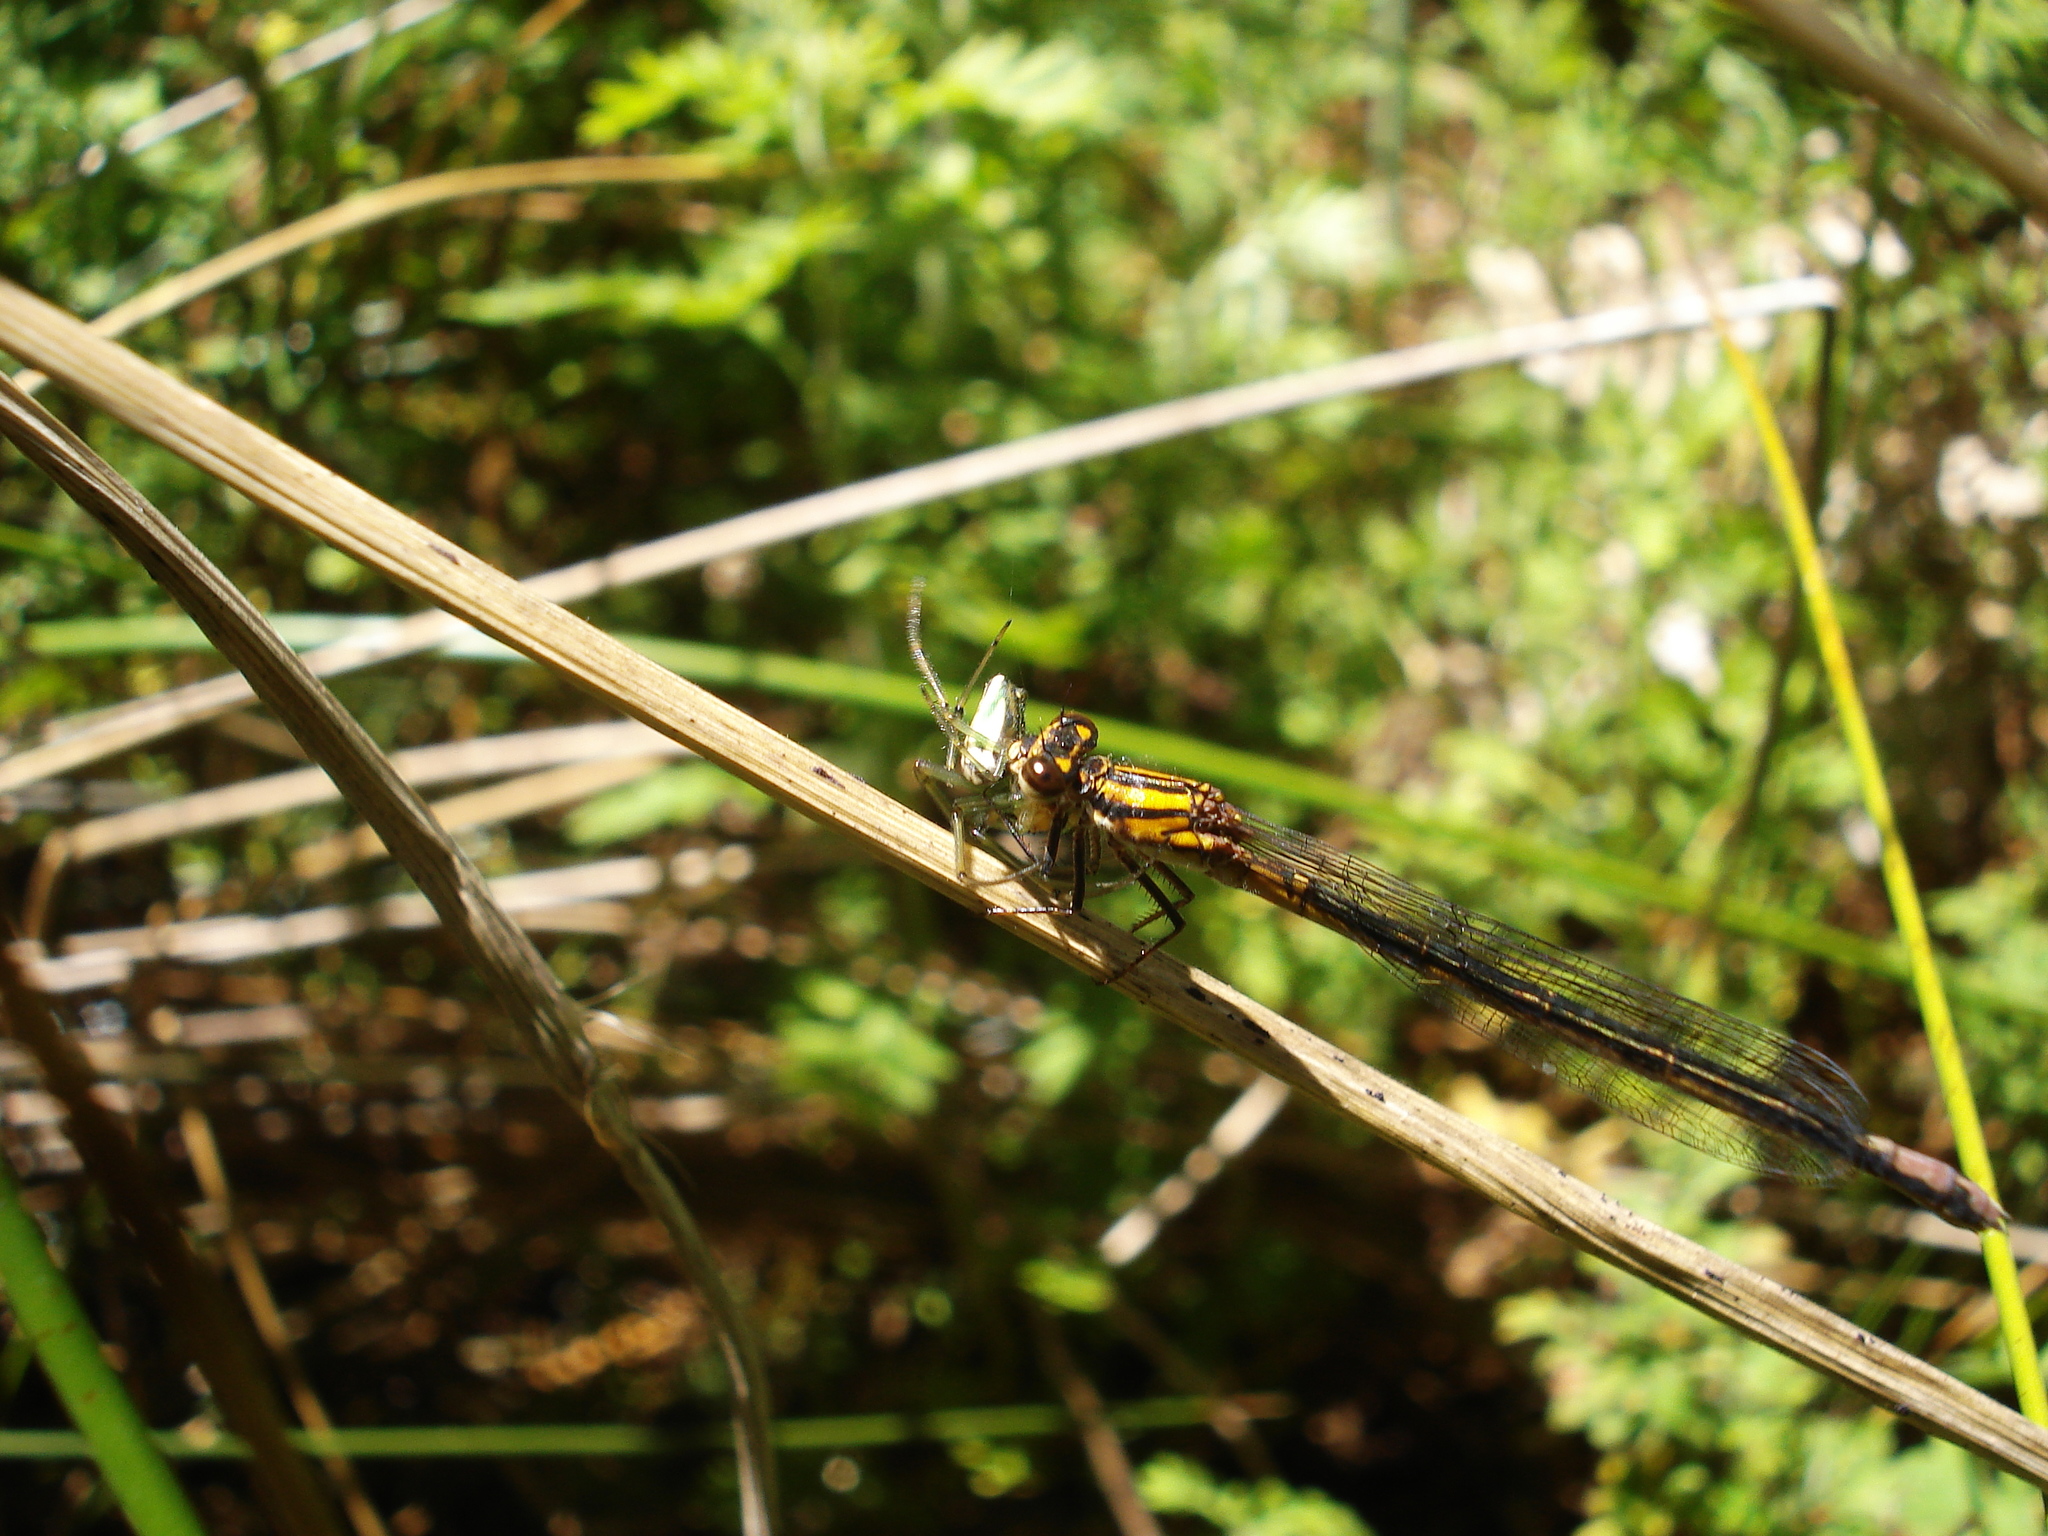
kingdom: Animalia
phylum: Arthropoda
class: Insecta
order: Odonata
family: Coenagrionidae
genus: Pseudagrion
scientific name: Pseudagrion furcigerum
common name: Palmiet sprite
